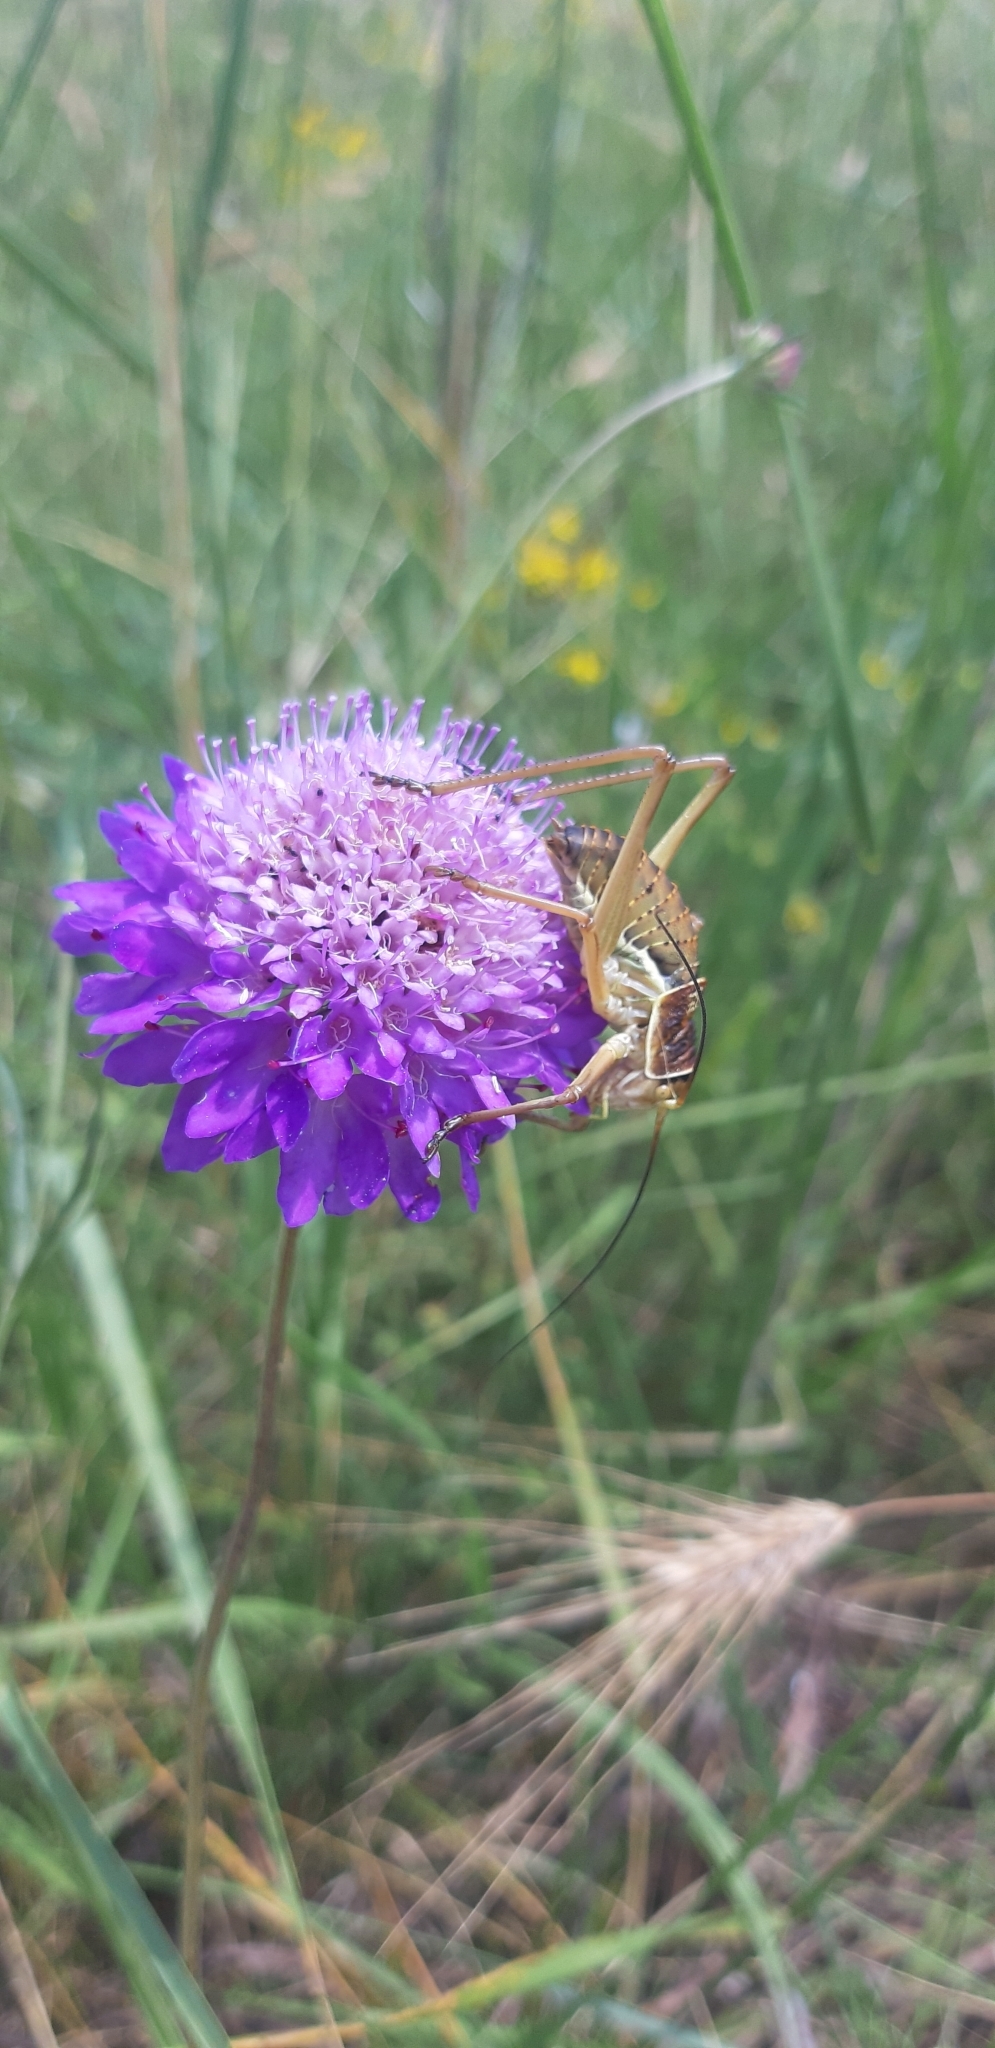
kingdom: Animalia
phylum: Arthropoda
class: Insecta
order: Orthoptera
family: Tettigoniidae
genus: Ephippiger
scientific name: Ephippiger apulus
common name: Apulian saddle bush-cricket
